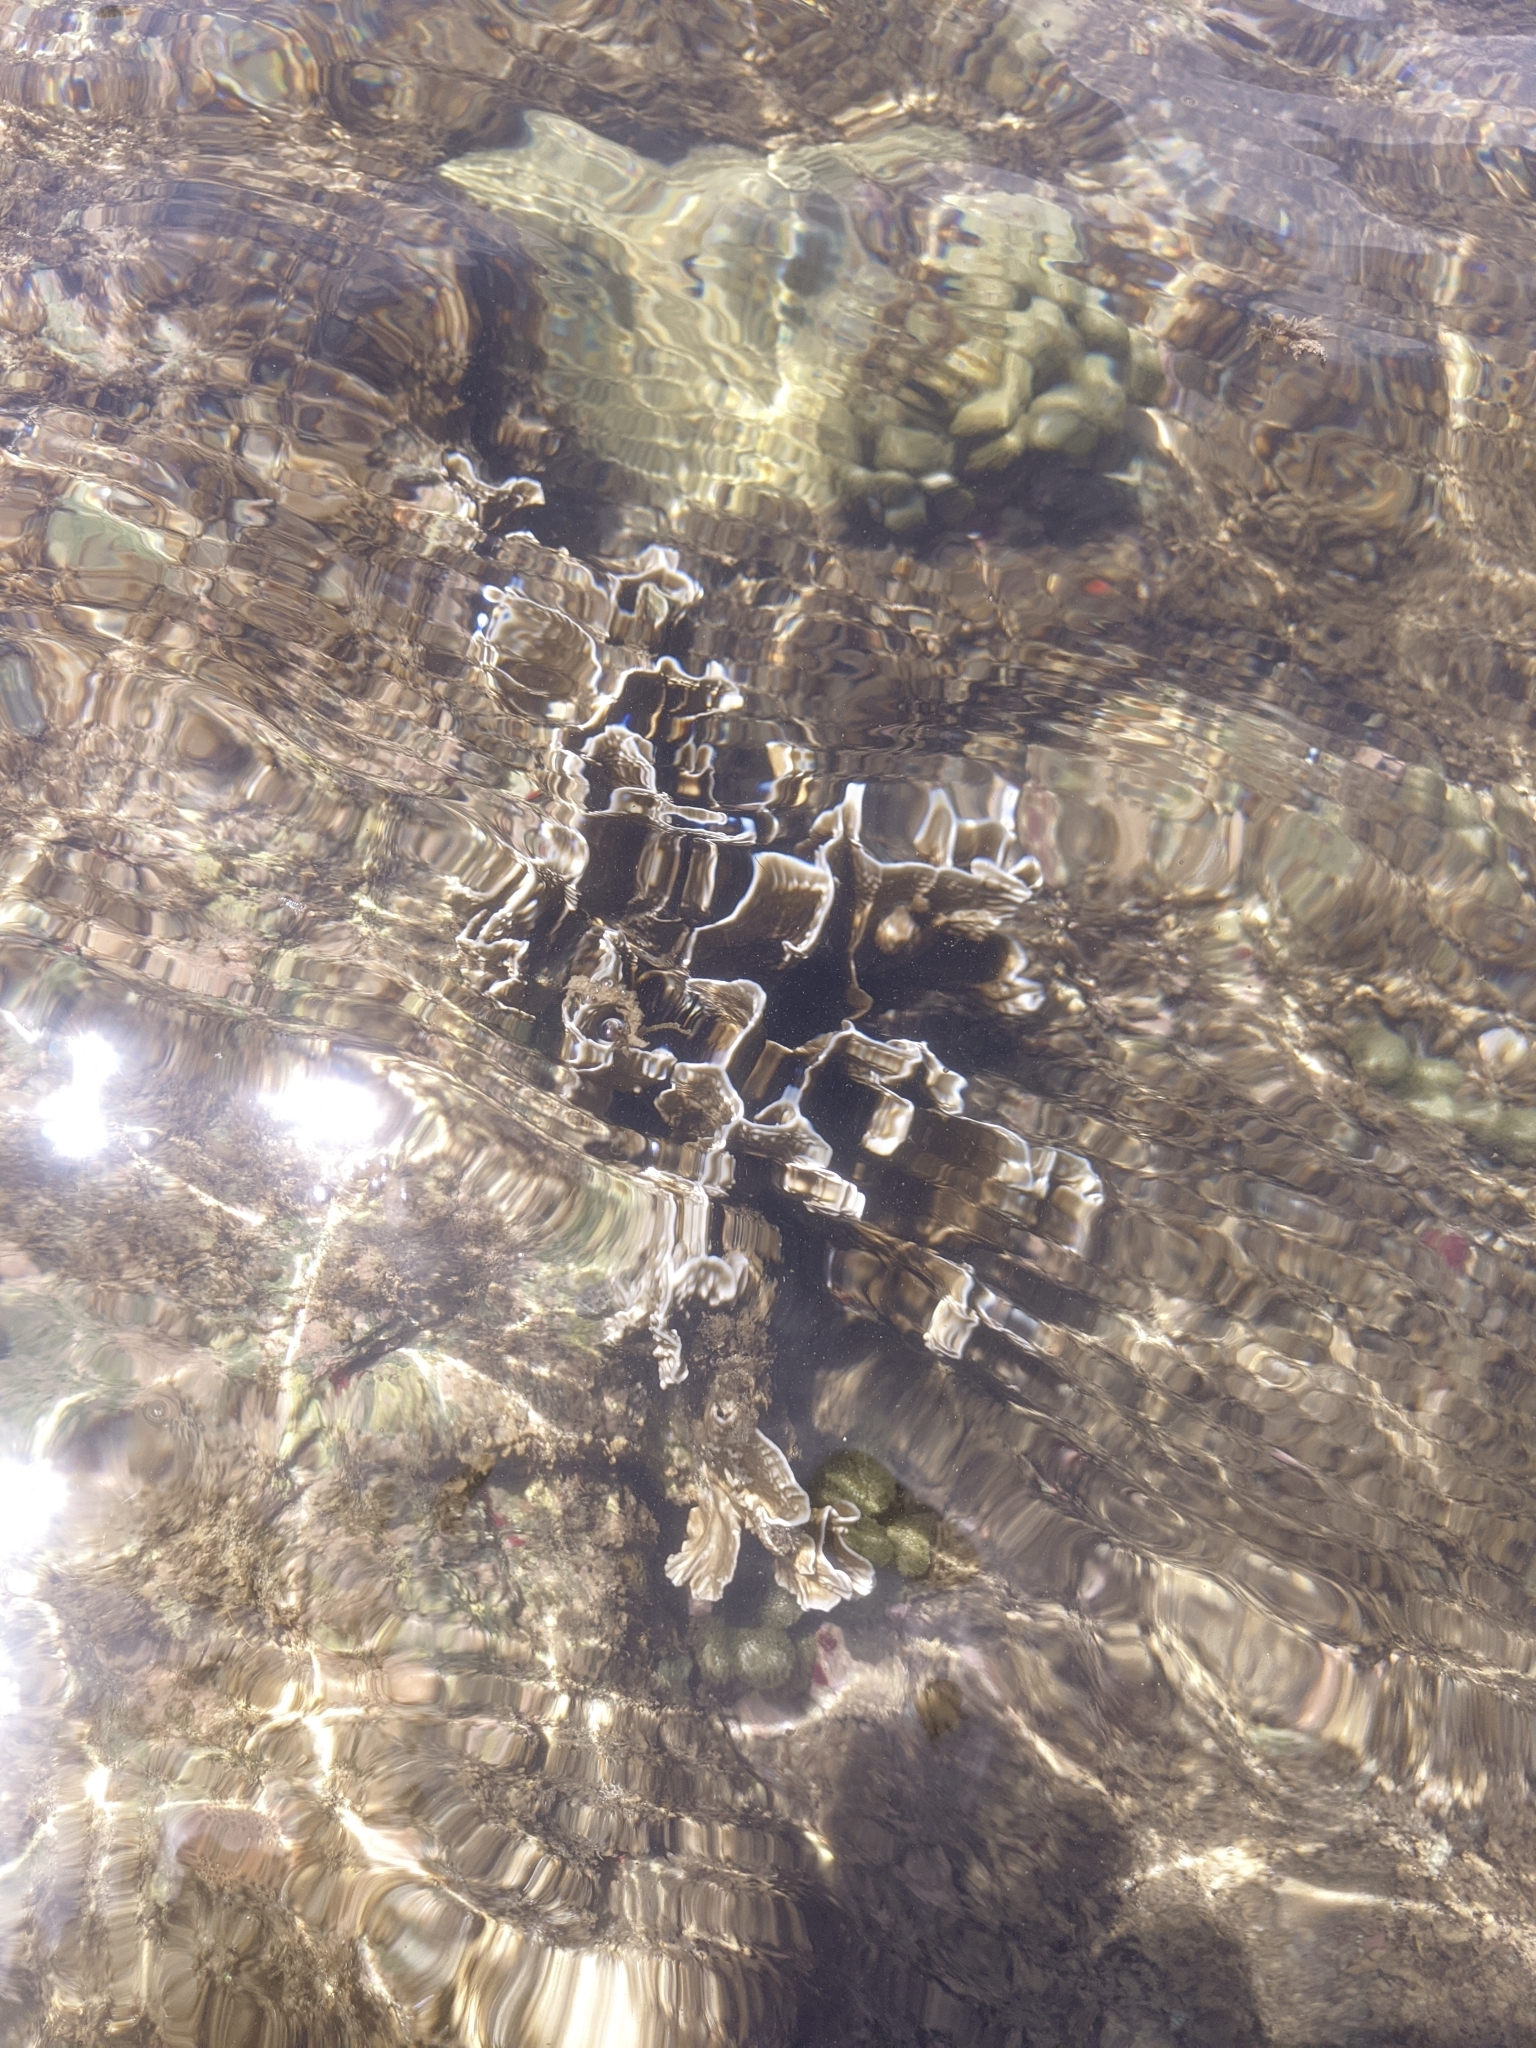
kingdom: Animalia
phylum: Cnidaria
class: Hydrozoa
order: Anthoathecata
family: Milleporidae
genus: Millepora
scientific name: Millepora complanata
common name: Bladed fire coral
